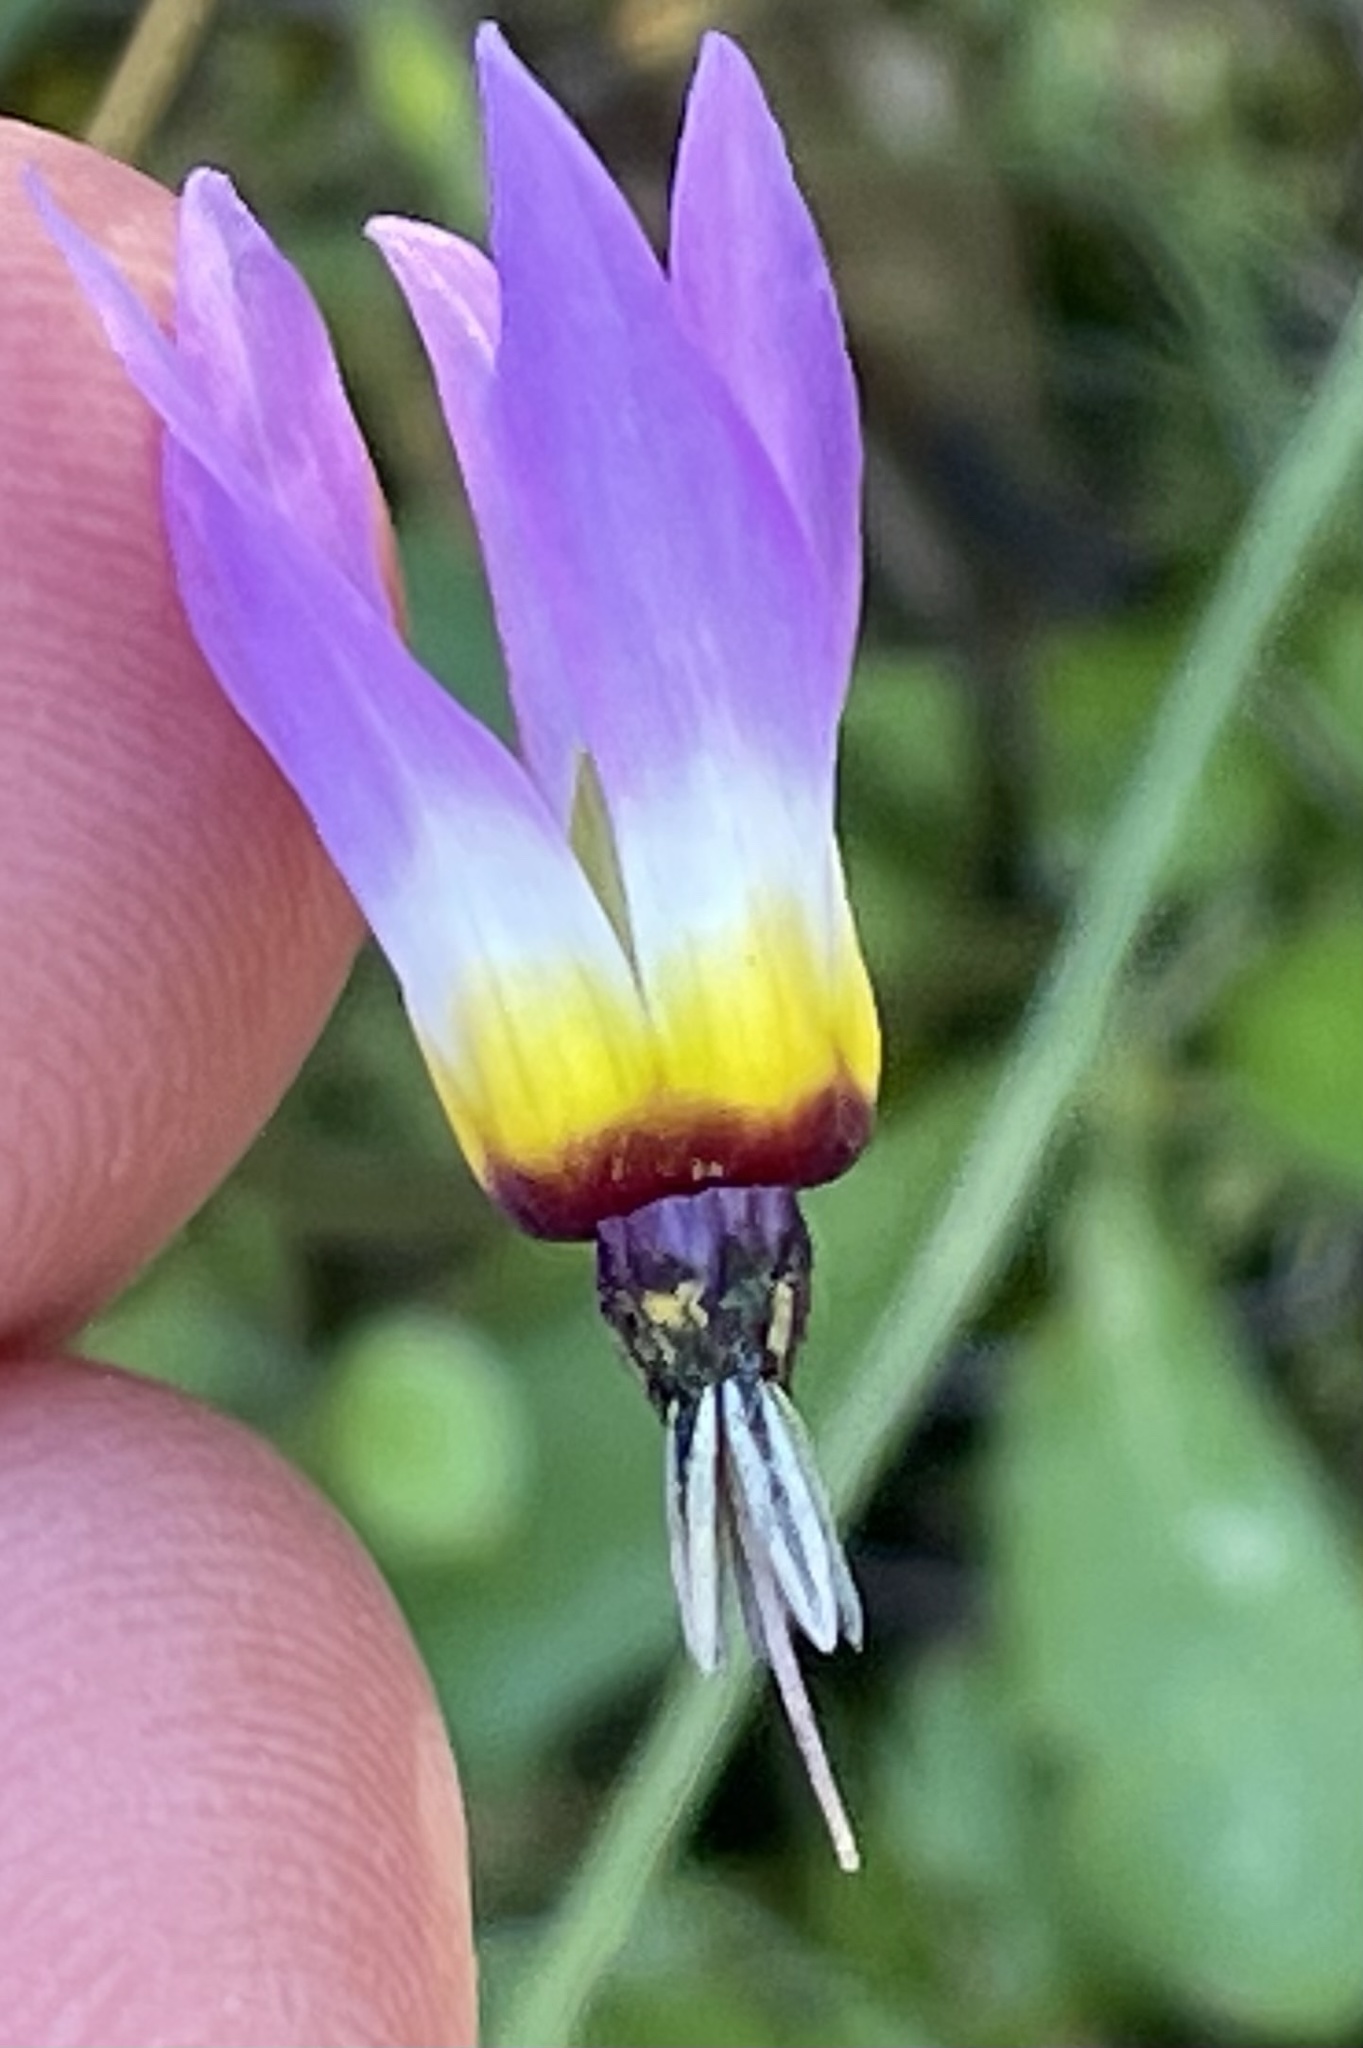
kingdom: Plantae
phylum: Tracheophyta
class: Magnoliopsida
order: Ericales
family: Primulaceae
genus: Dodecatheon
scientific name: Dodecatheon clevelandii
